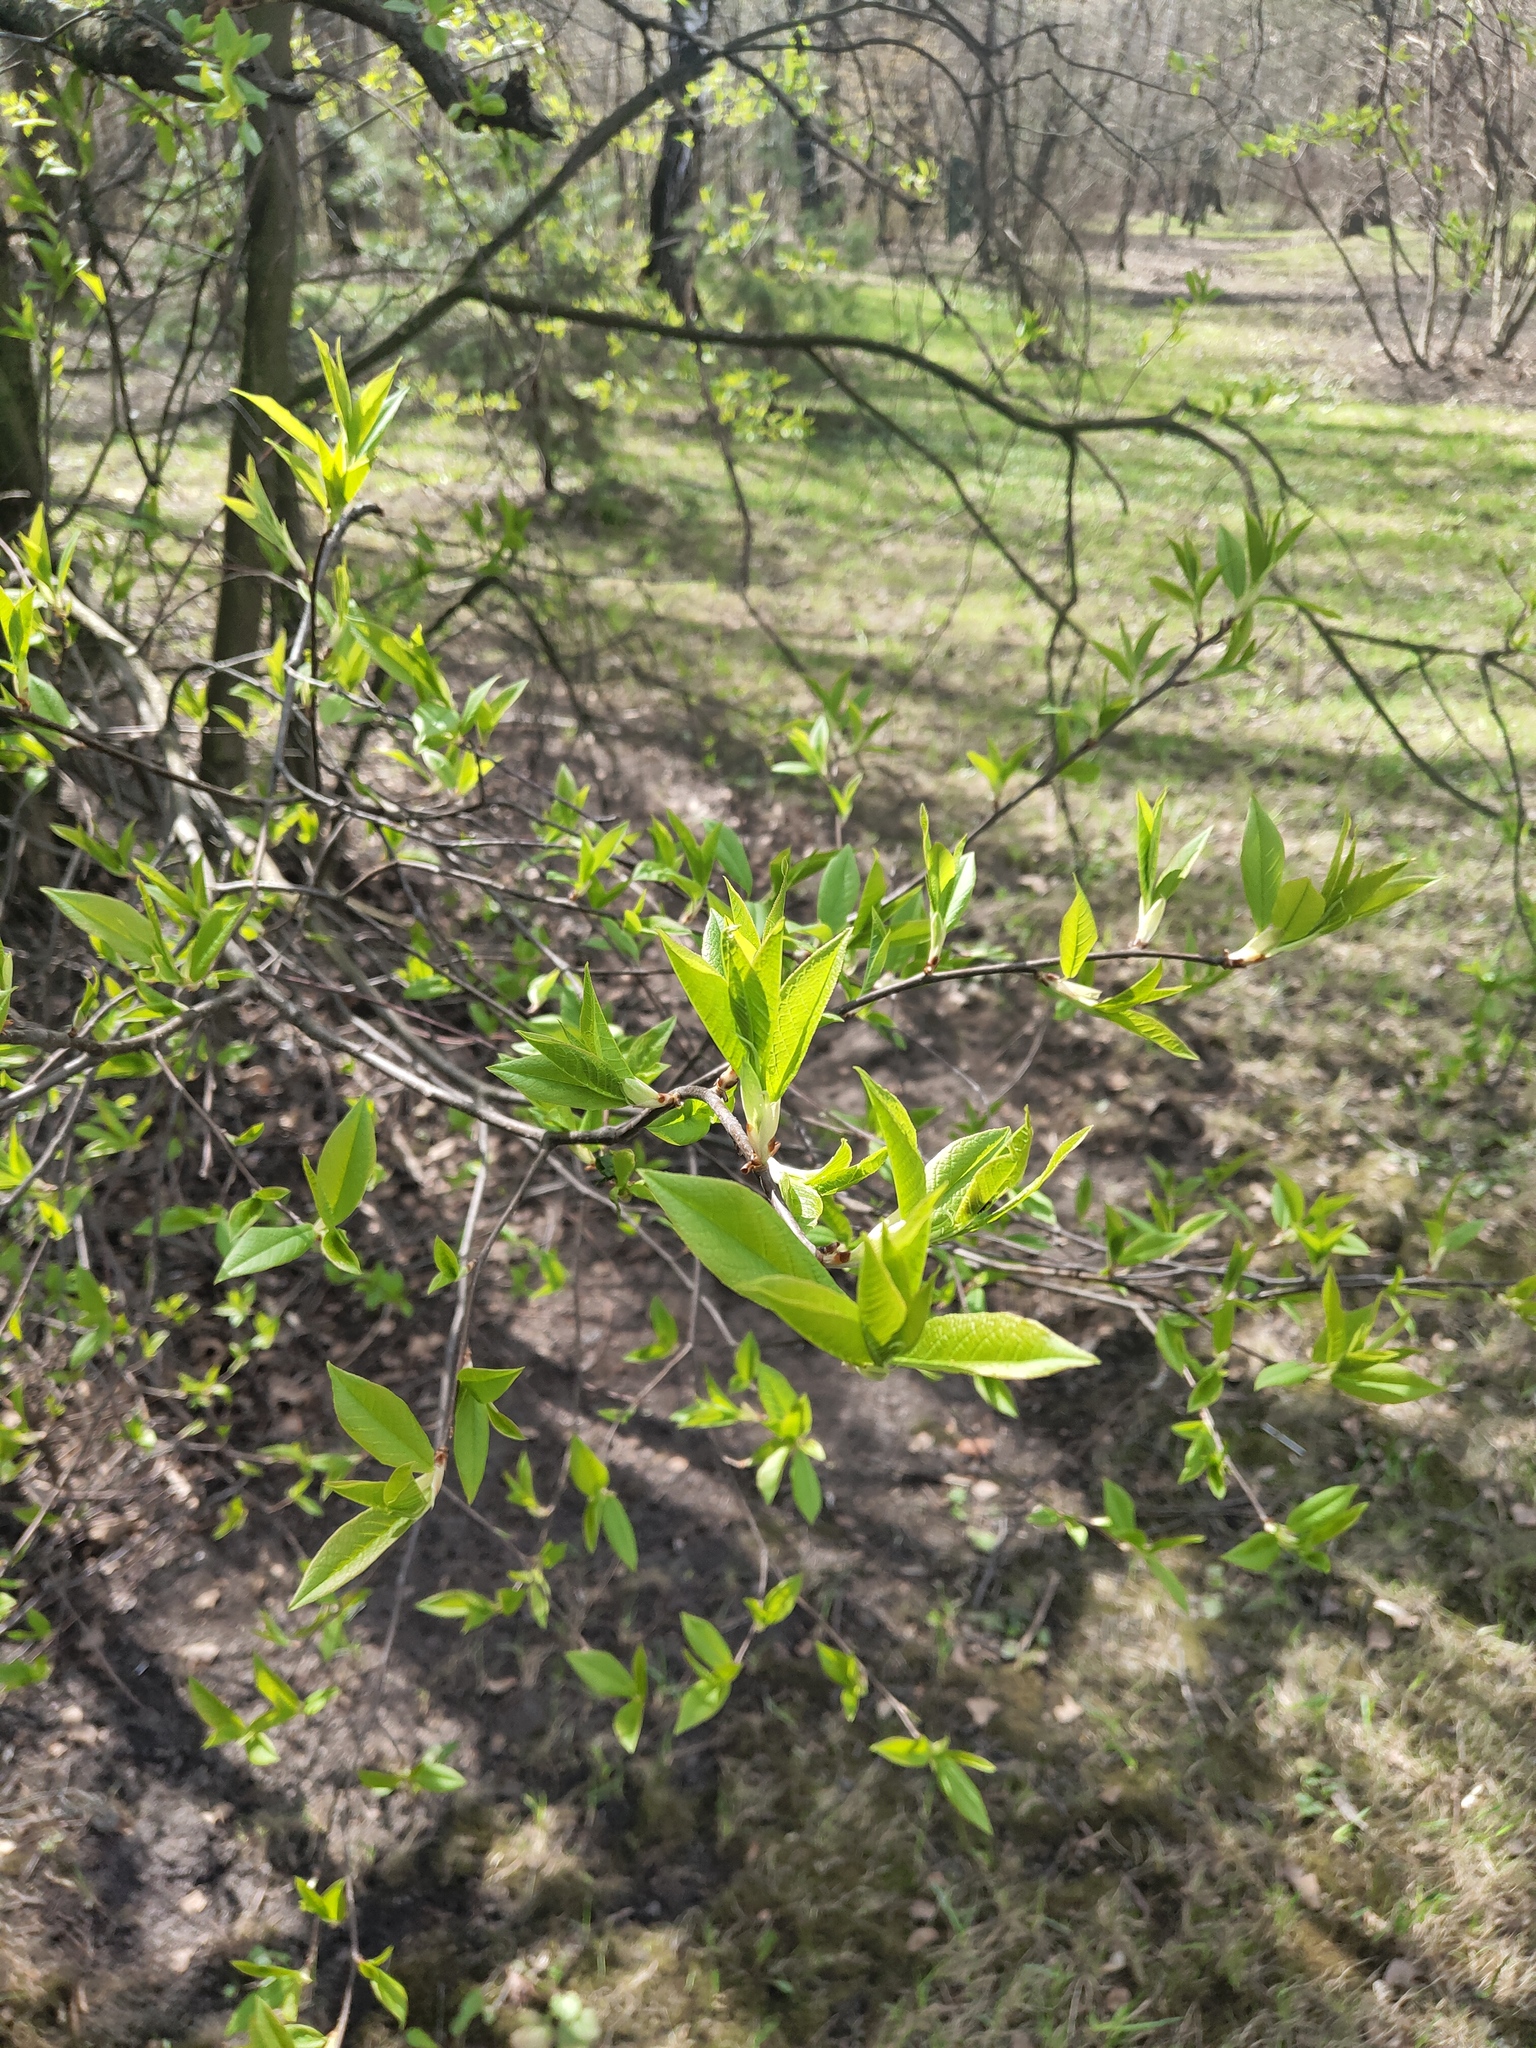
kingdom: Plantae
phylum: Tracheophyta
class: Magnoliopsida
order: Rosales
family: Rosaceae
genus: Prunus
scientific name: Prunus padus
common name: Bird cherry
